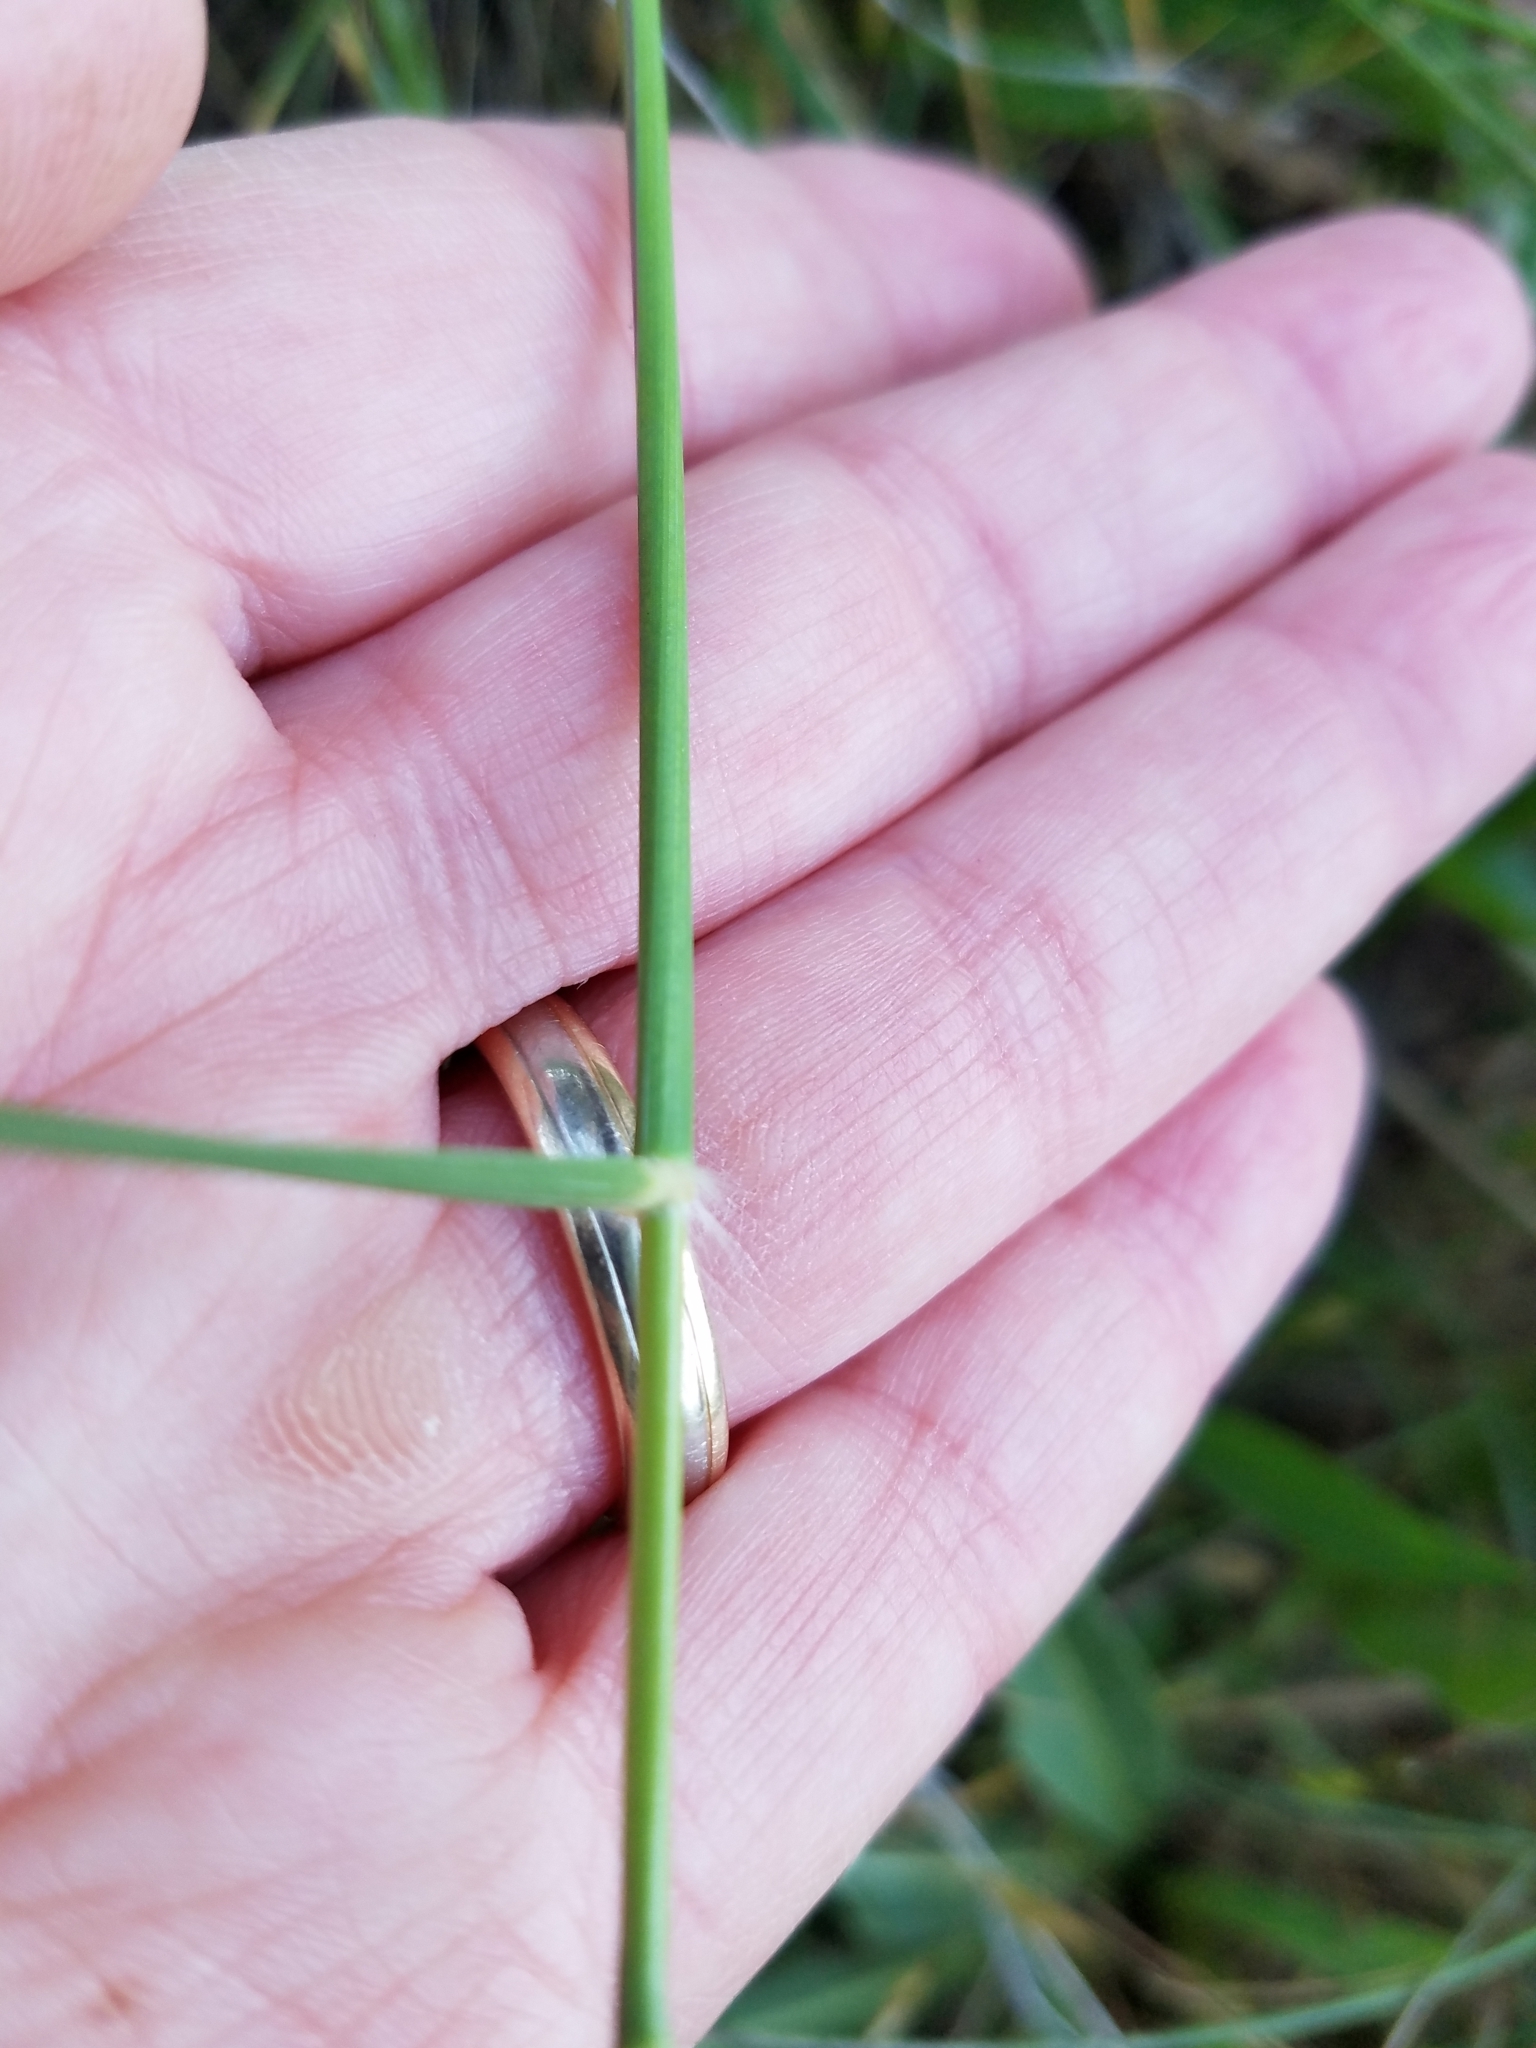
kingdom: Plantae
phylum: Tracheophyta
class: Liliopsida
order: Poales
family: Poaceae
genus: Danthonia
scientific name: Danthonia californica
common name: California oat grass
